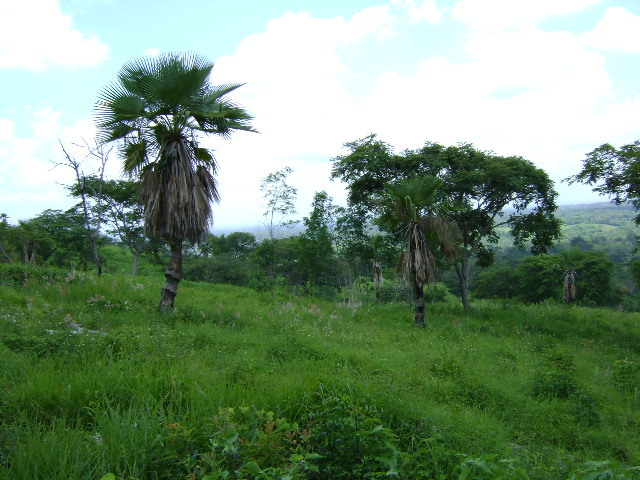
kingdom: Plantae
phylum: Tracheophyta
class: Liliopsida
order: Arecales
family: Arecaceae
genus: Brahea
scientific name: Brahea dulcis
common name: Apak palm
